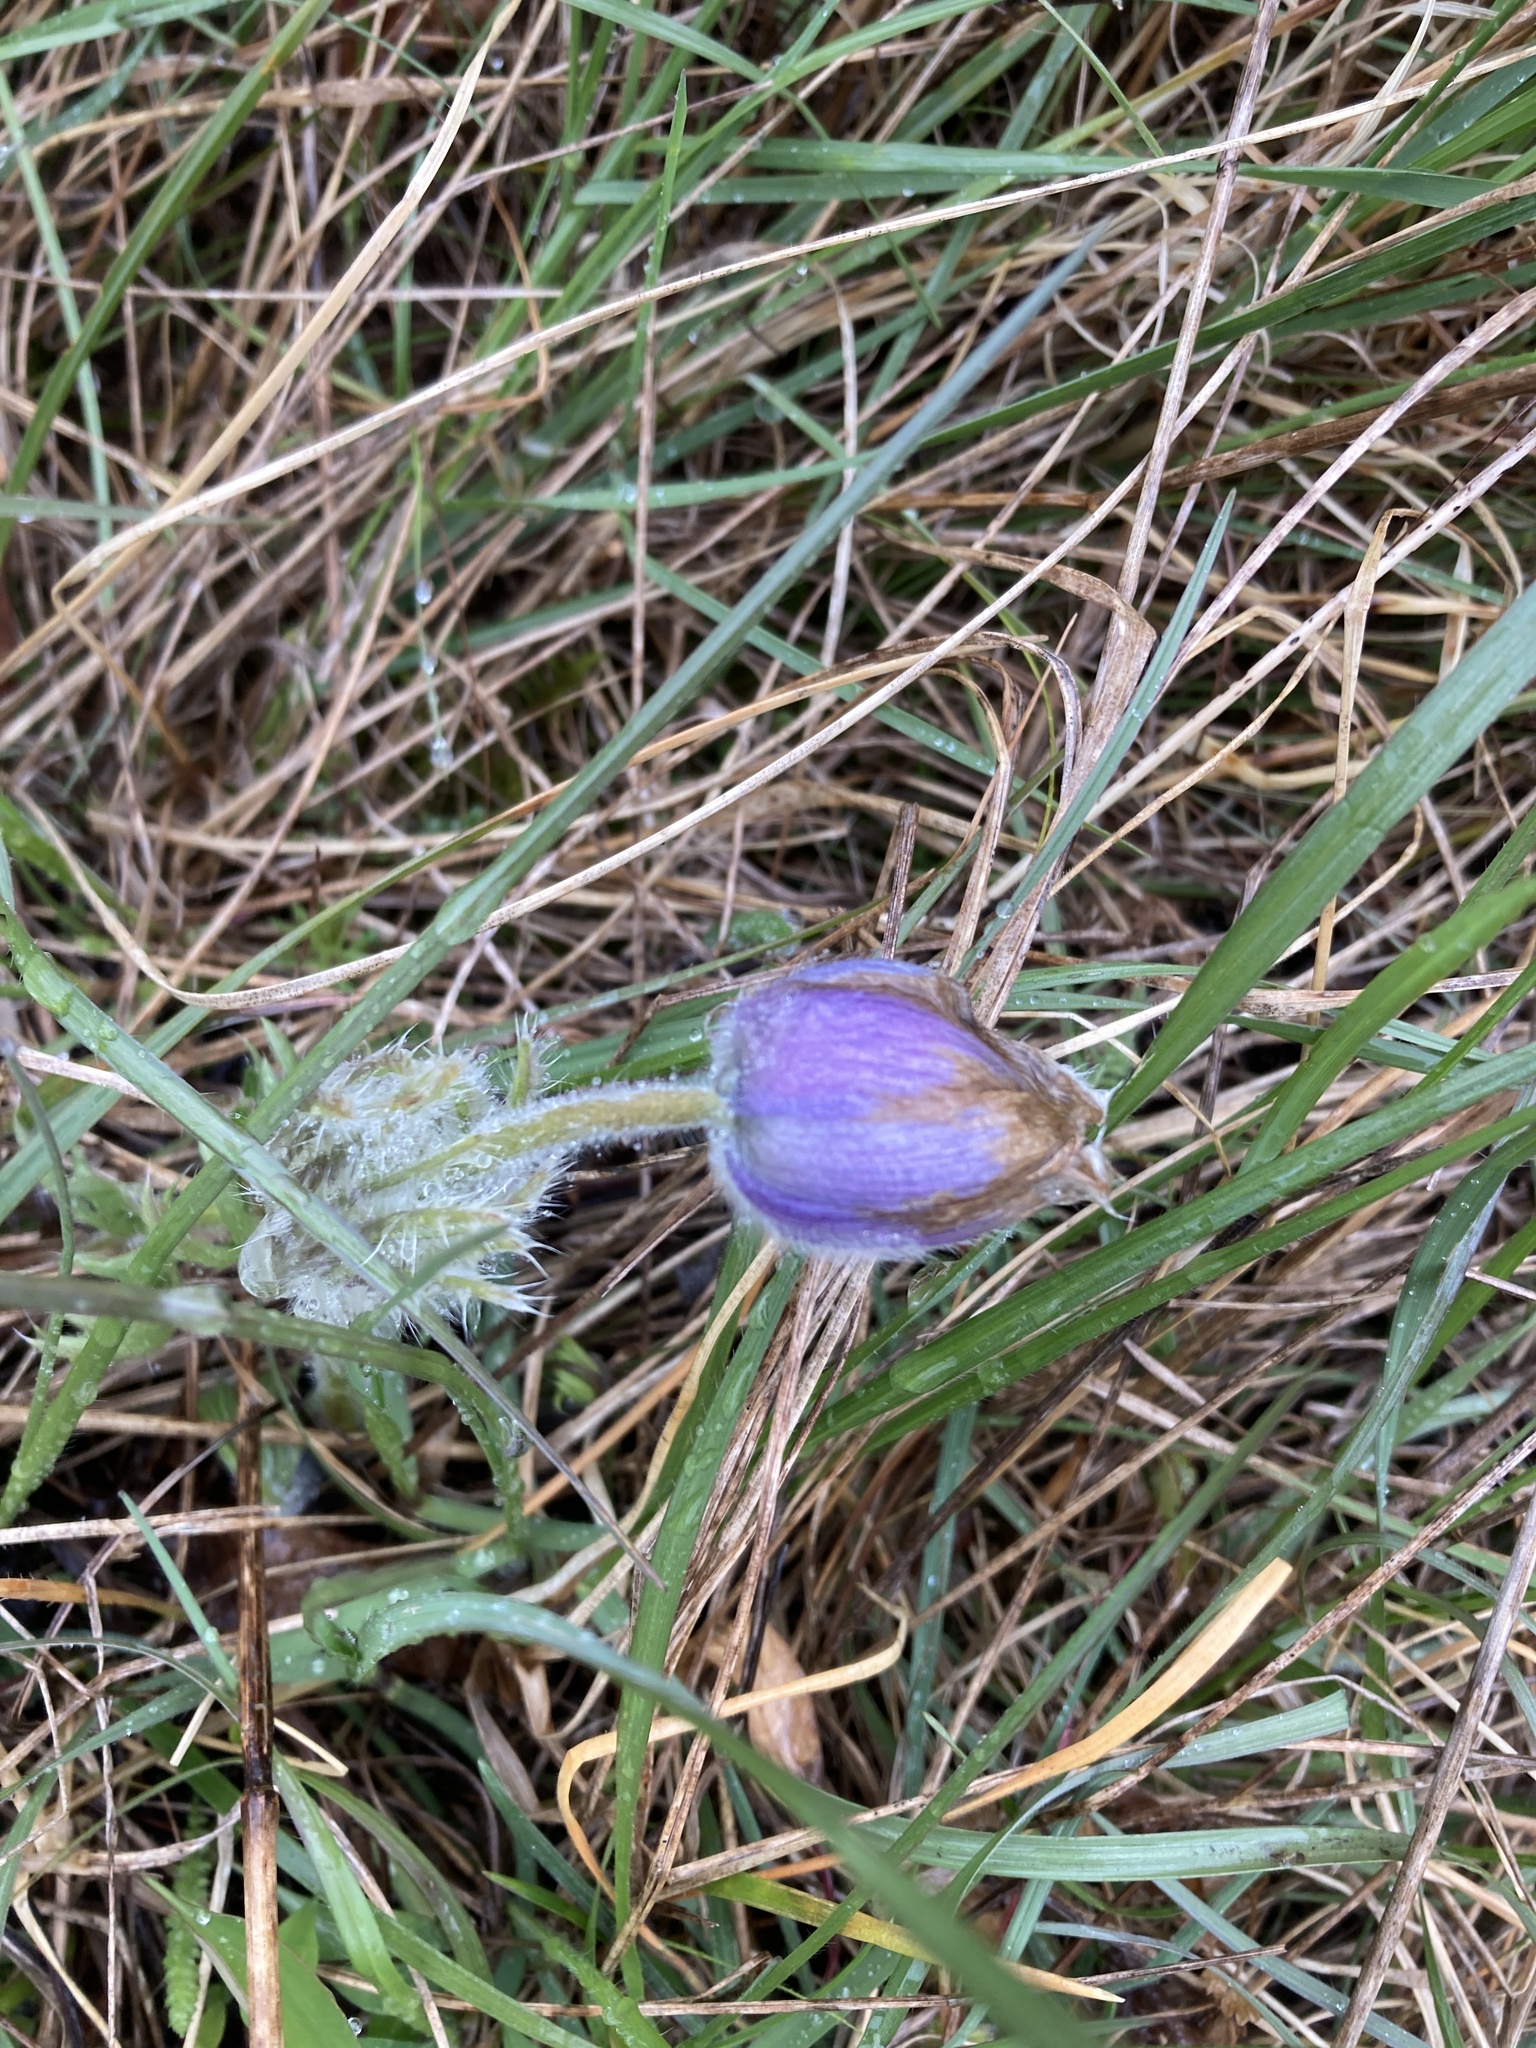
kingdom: Plantae
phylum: Tracheophyta
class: Magnoliopsida
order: Ranunculales
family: Ranunculaceae
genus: Pulsatilla
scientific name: Pulsatilla grandis
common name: Greater pasque flower
